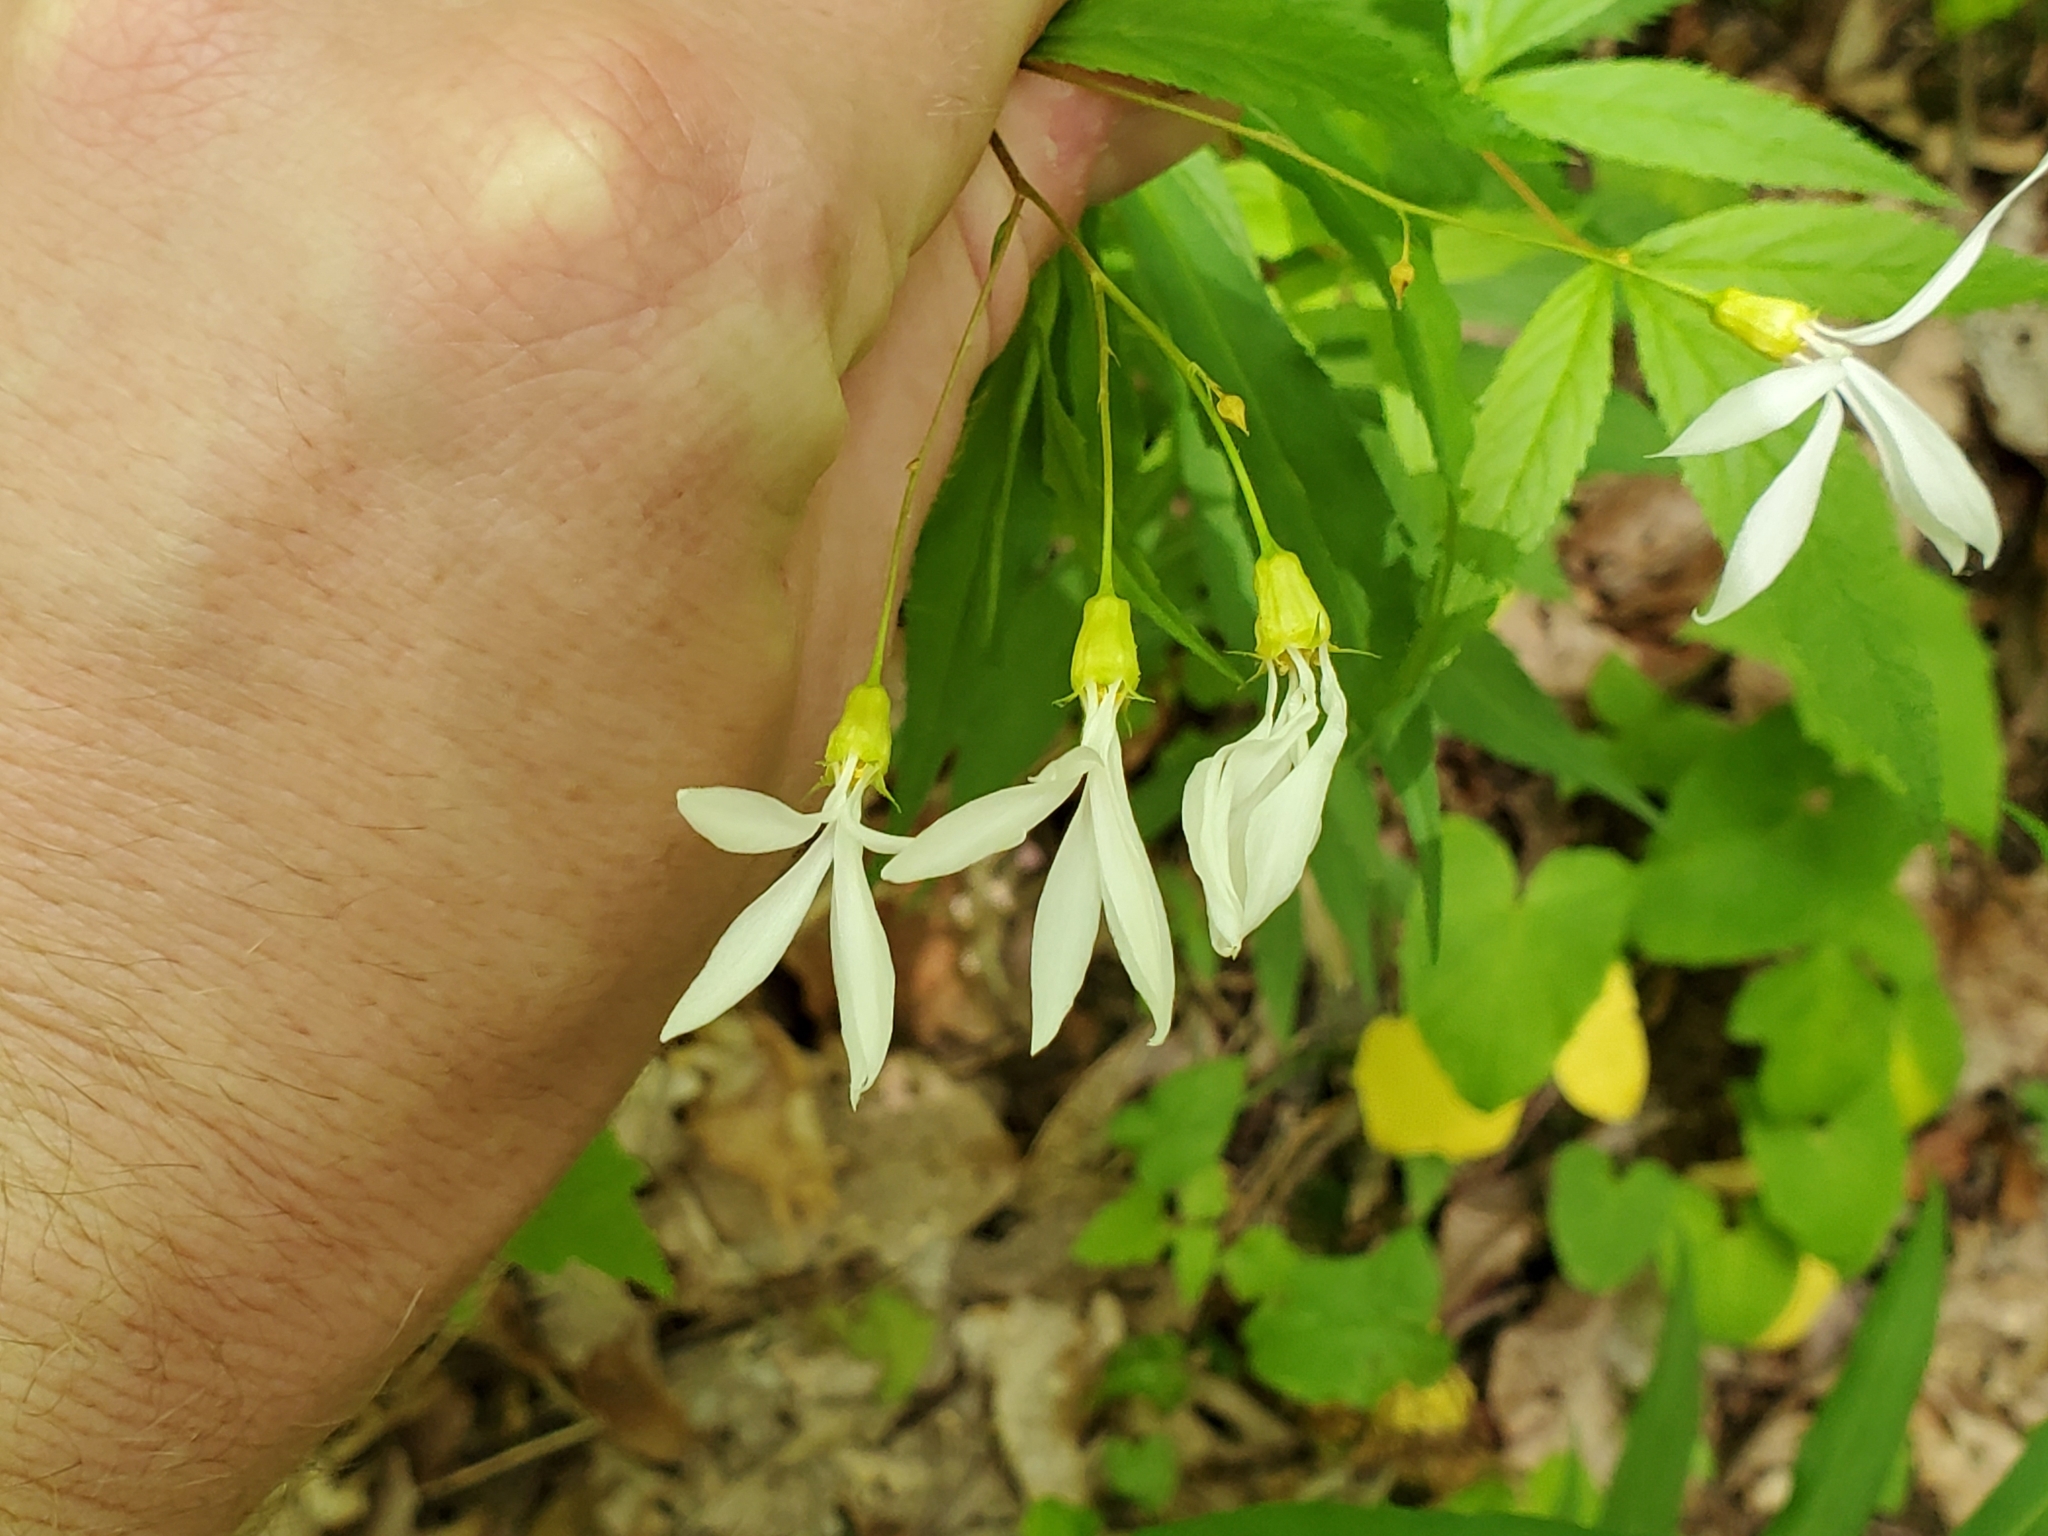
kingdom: Plantae
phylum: Tracheophyta
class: Magnoliopsida
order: Rosales
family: Rosaceae
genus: Gillenia
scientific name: Gillenia trifoliata
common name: Bowman's-root
